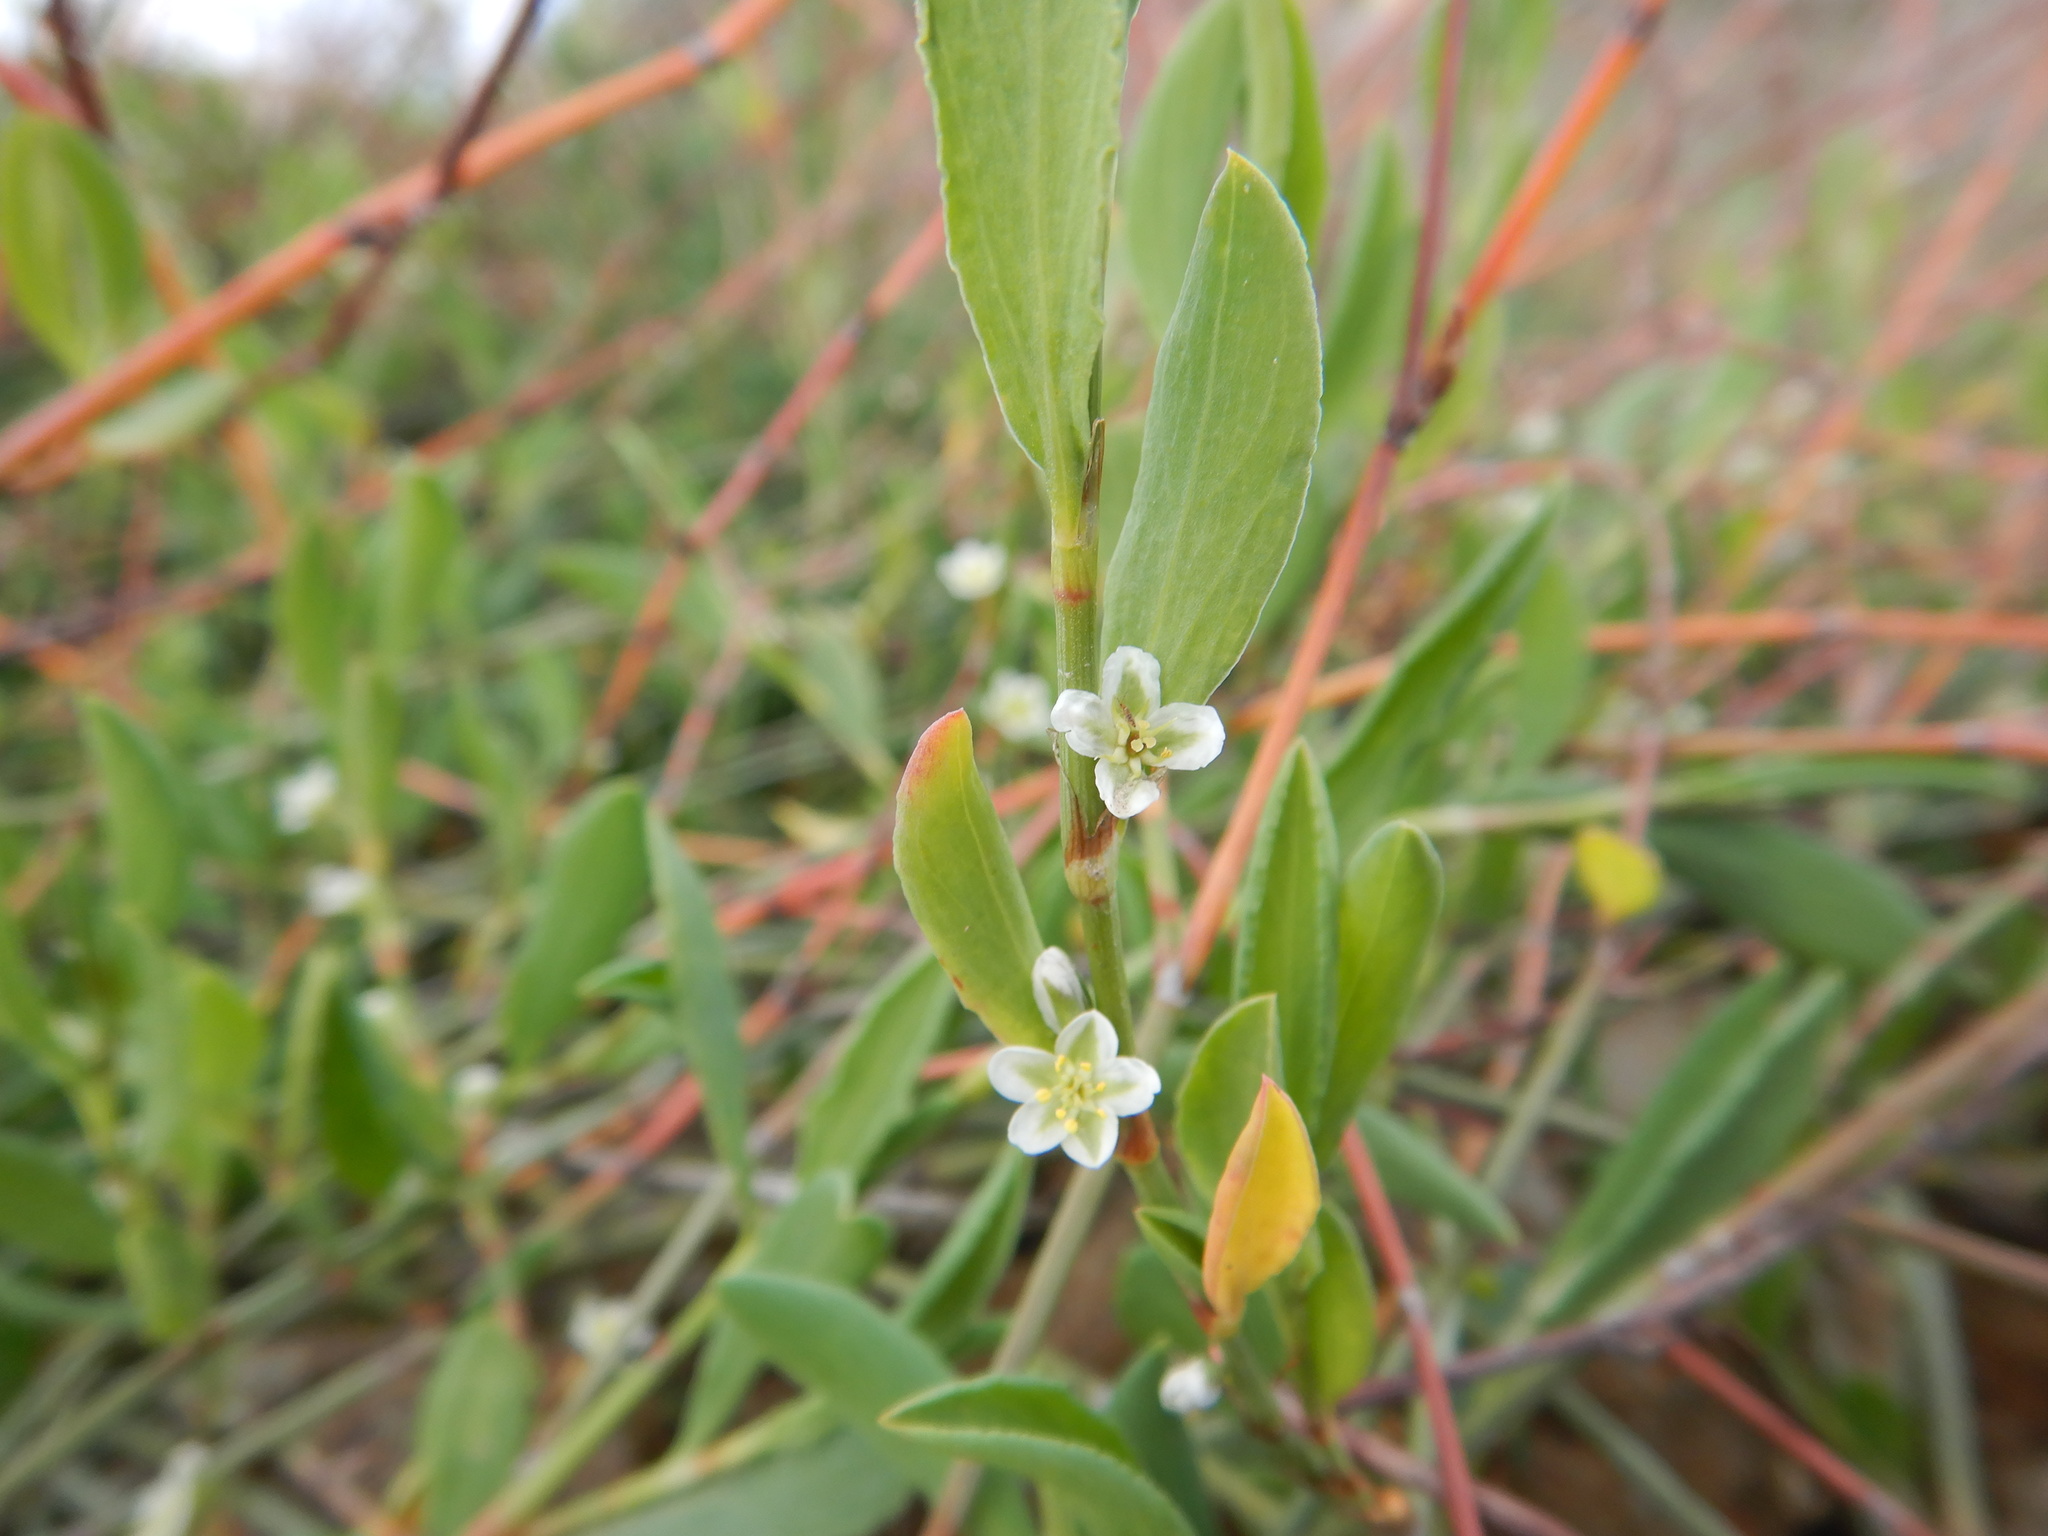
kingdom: Plantae
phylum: Tracheophyta
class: Magnoliopsida
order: Caryophyllales
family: Polygonaceae
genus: Polygonum
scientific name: Polygonum equisetiforme
